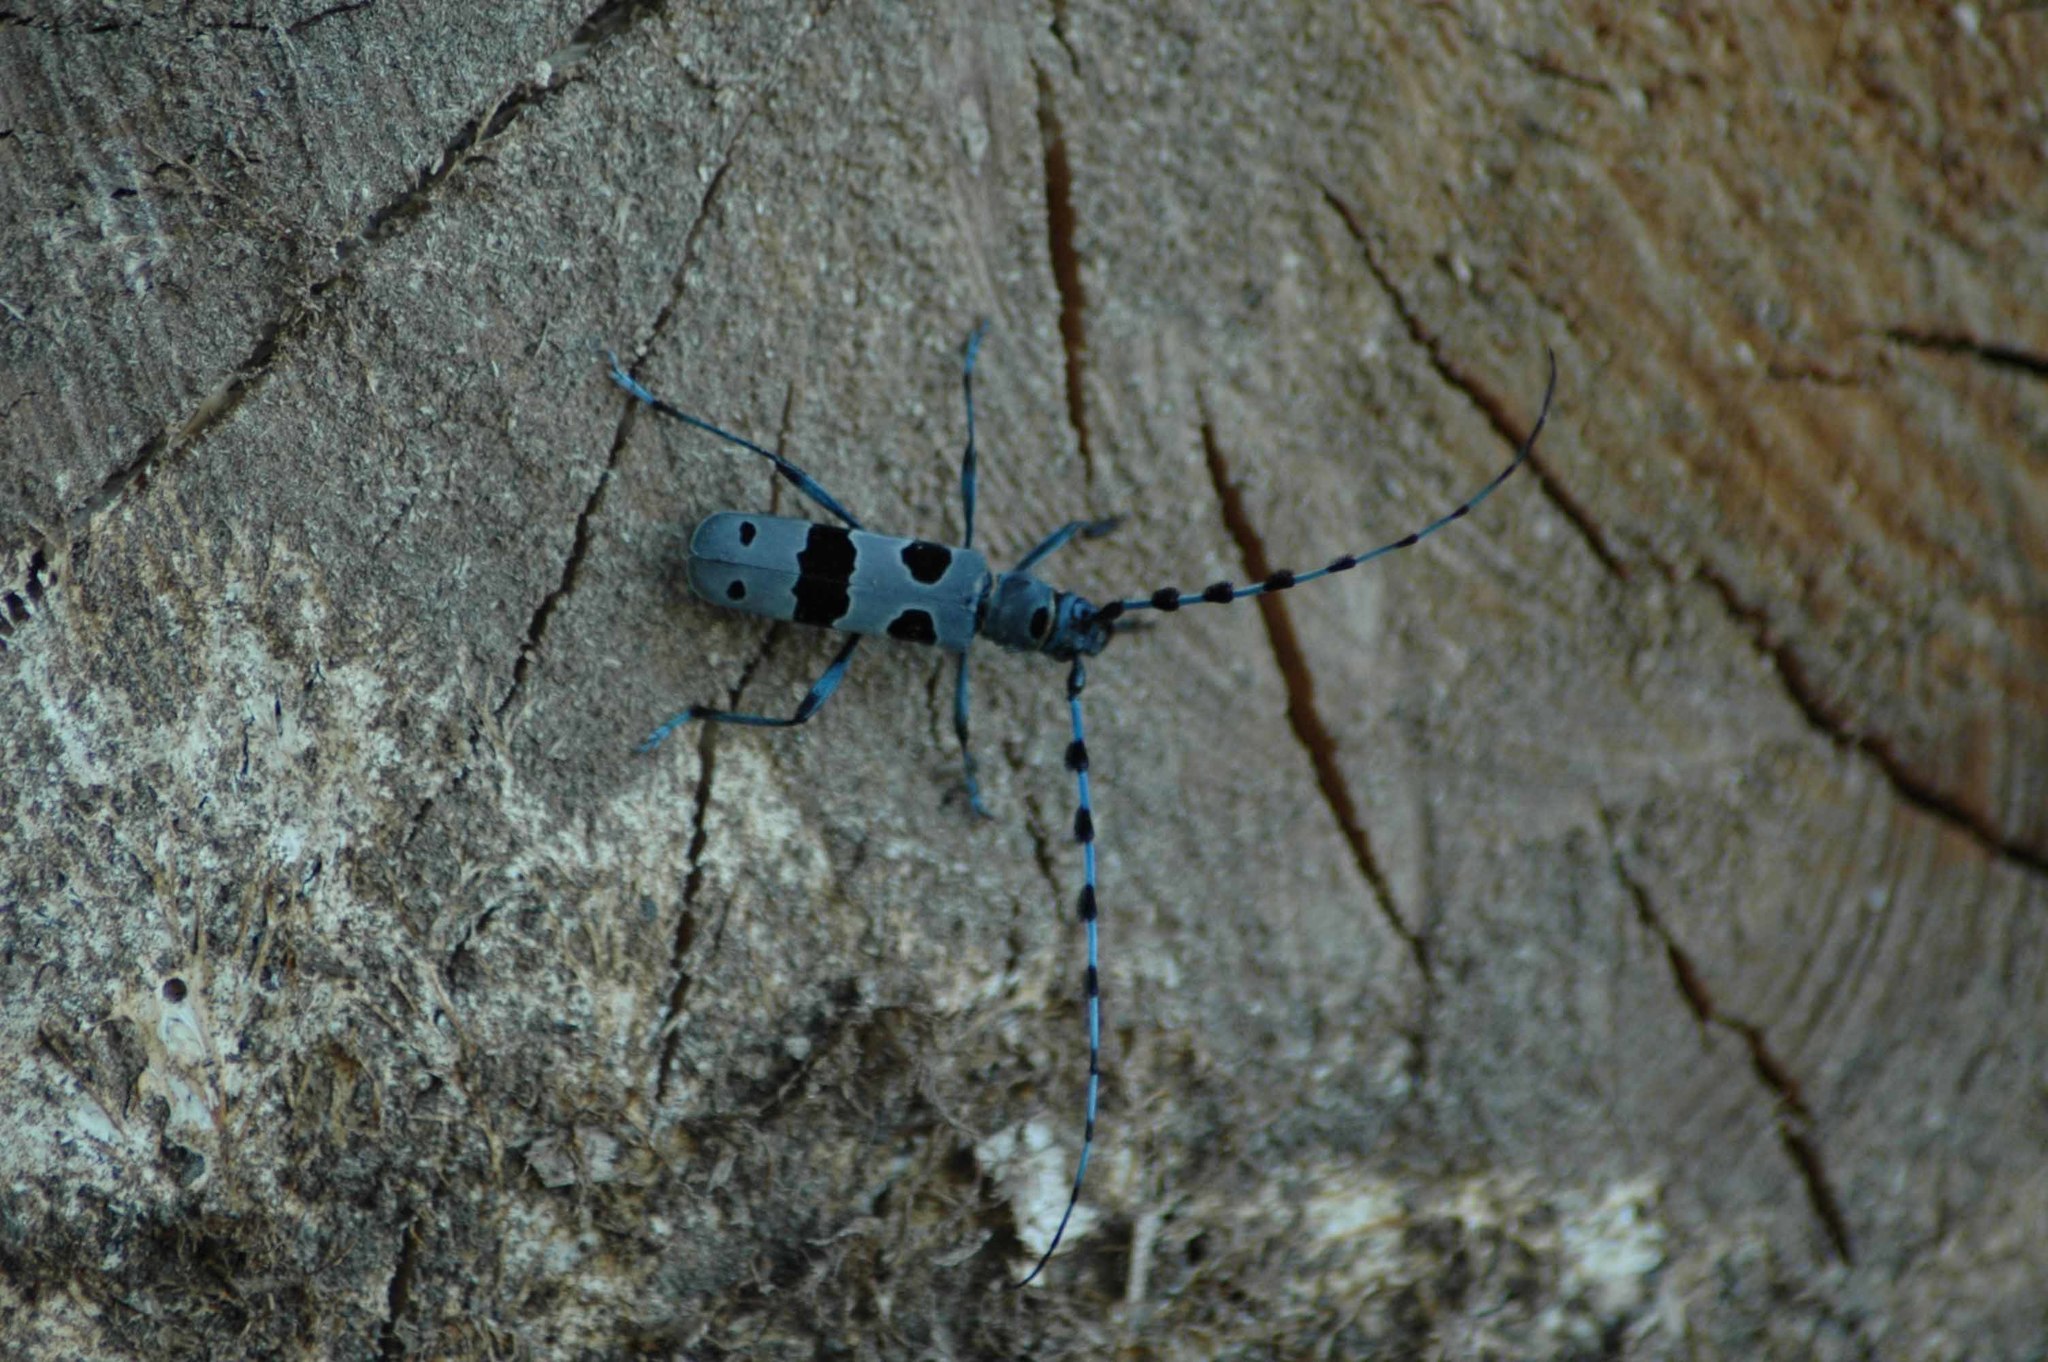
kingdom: Animalia
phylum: Arthropoda
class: Insecta
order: Coleoptera
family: Cerambycidae
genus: Rosalia
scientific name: Rosalia alpina
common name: Rosalia longicorn
